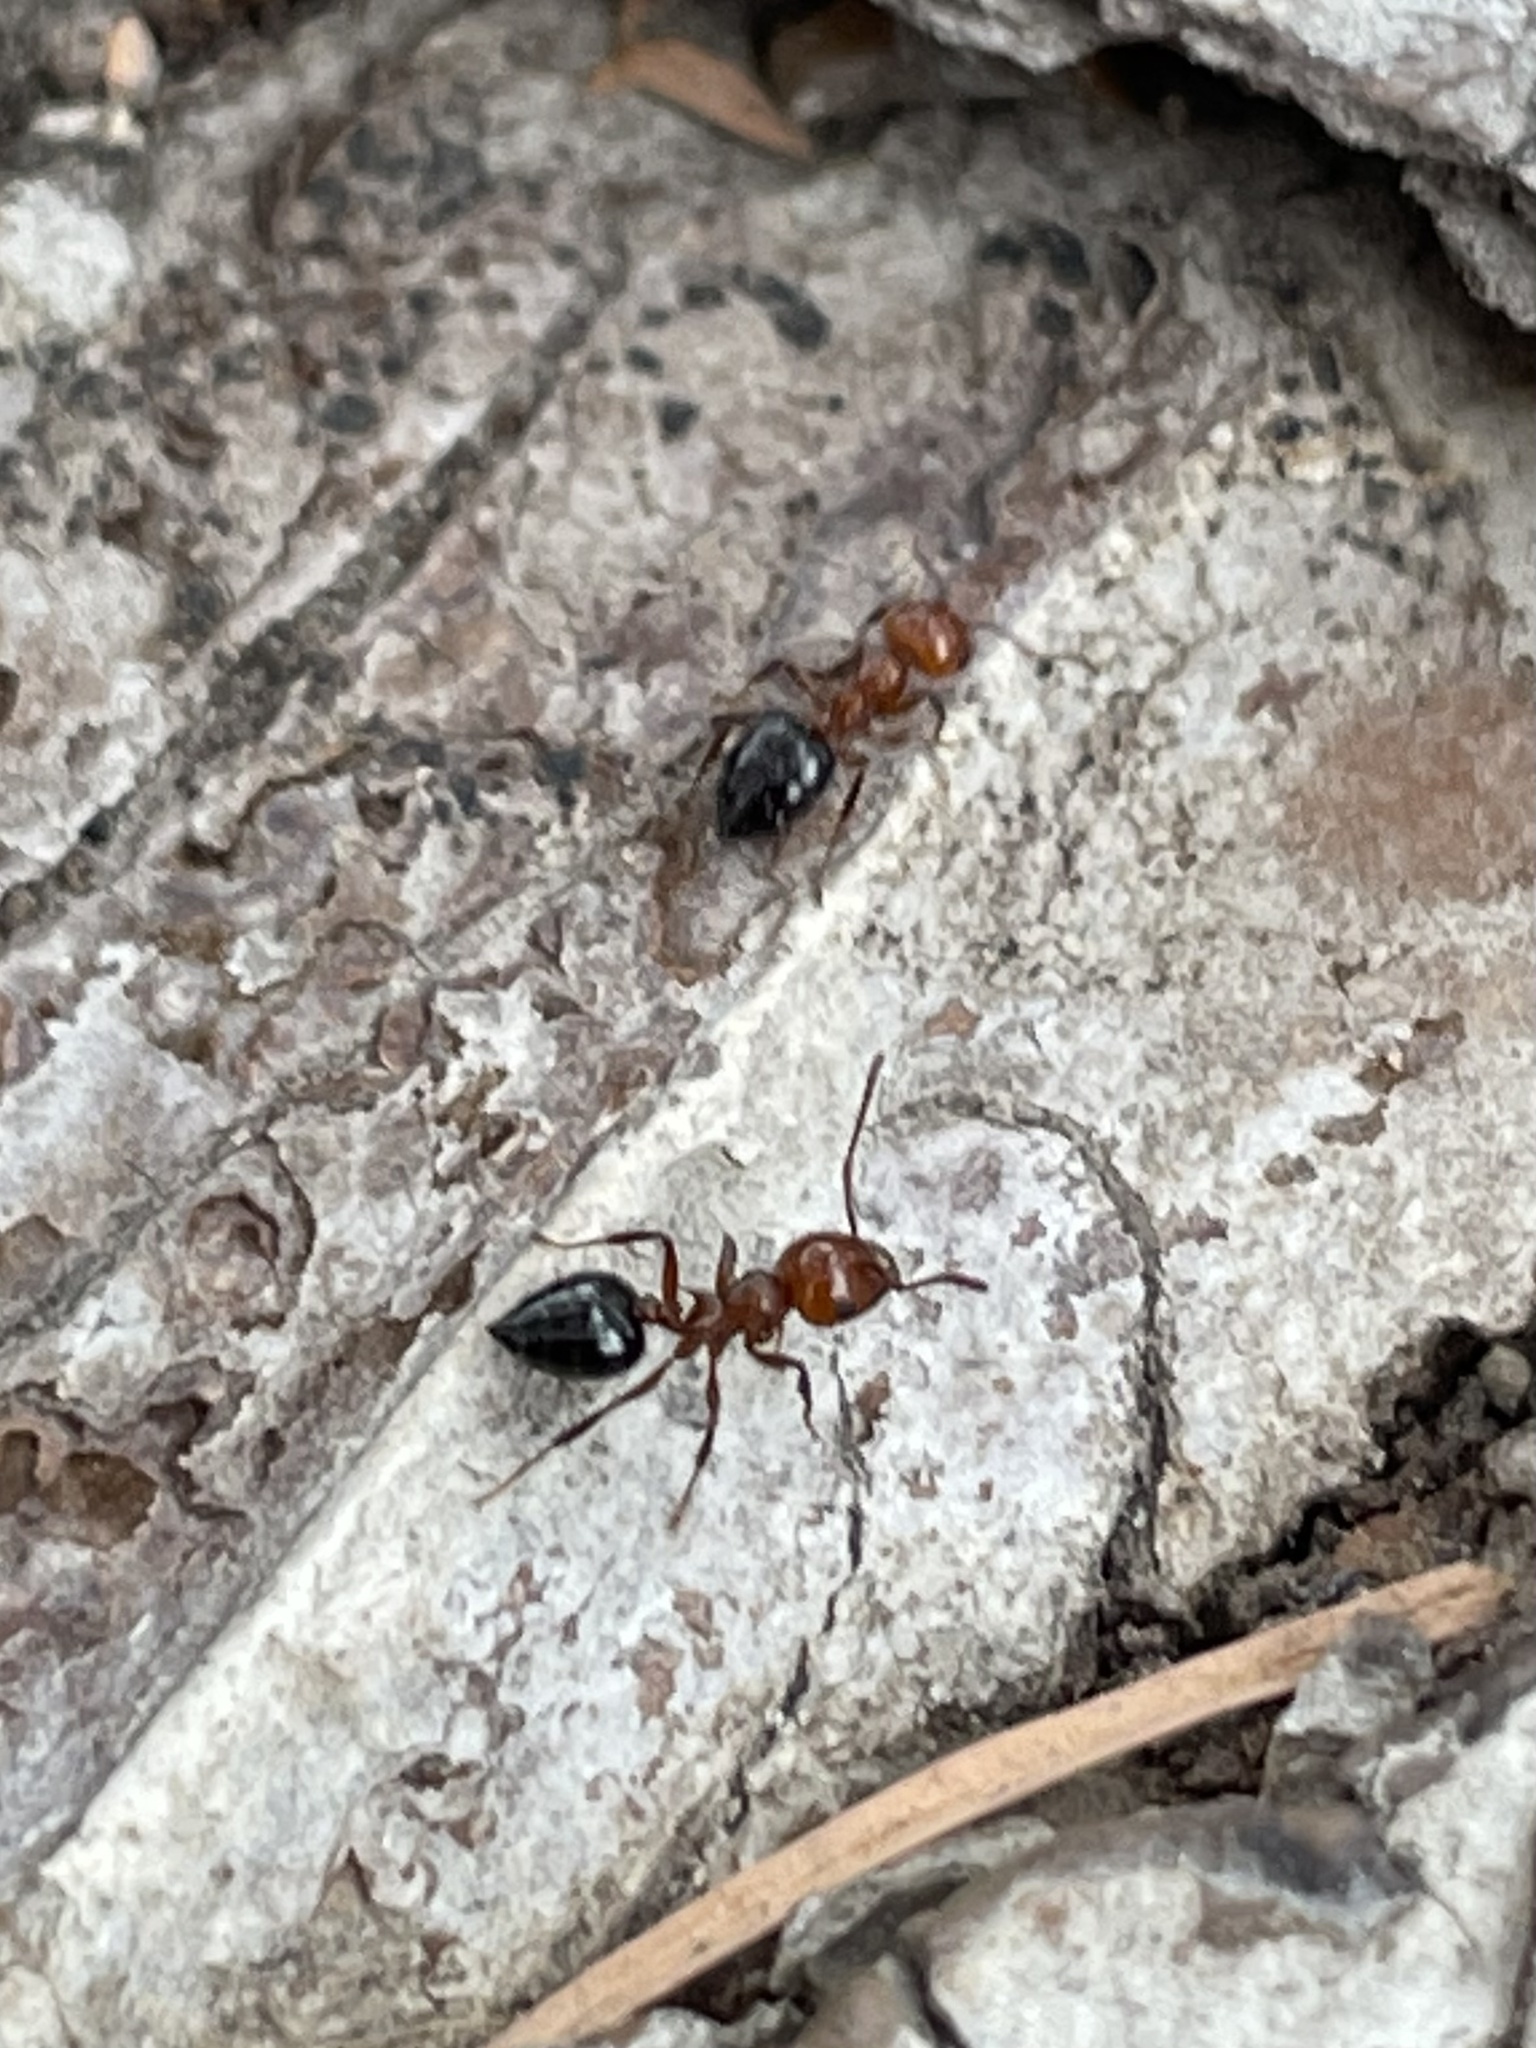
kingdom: Animalia
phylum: Arthropoda
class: Insecta
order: Hymenoptera
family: Formicidae
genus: Crematogaster
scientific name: Crematogaster laeviuscula
